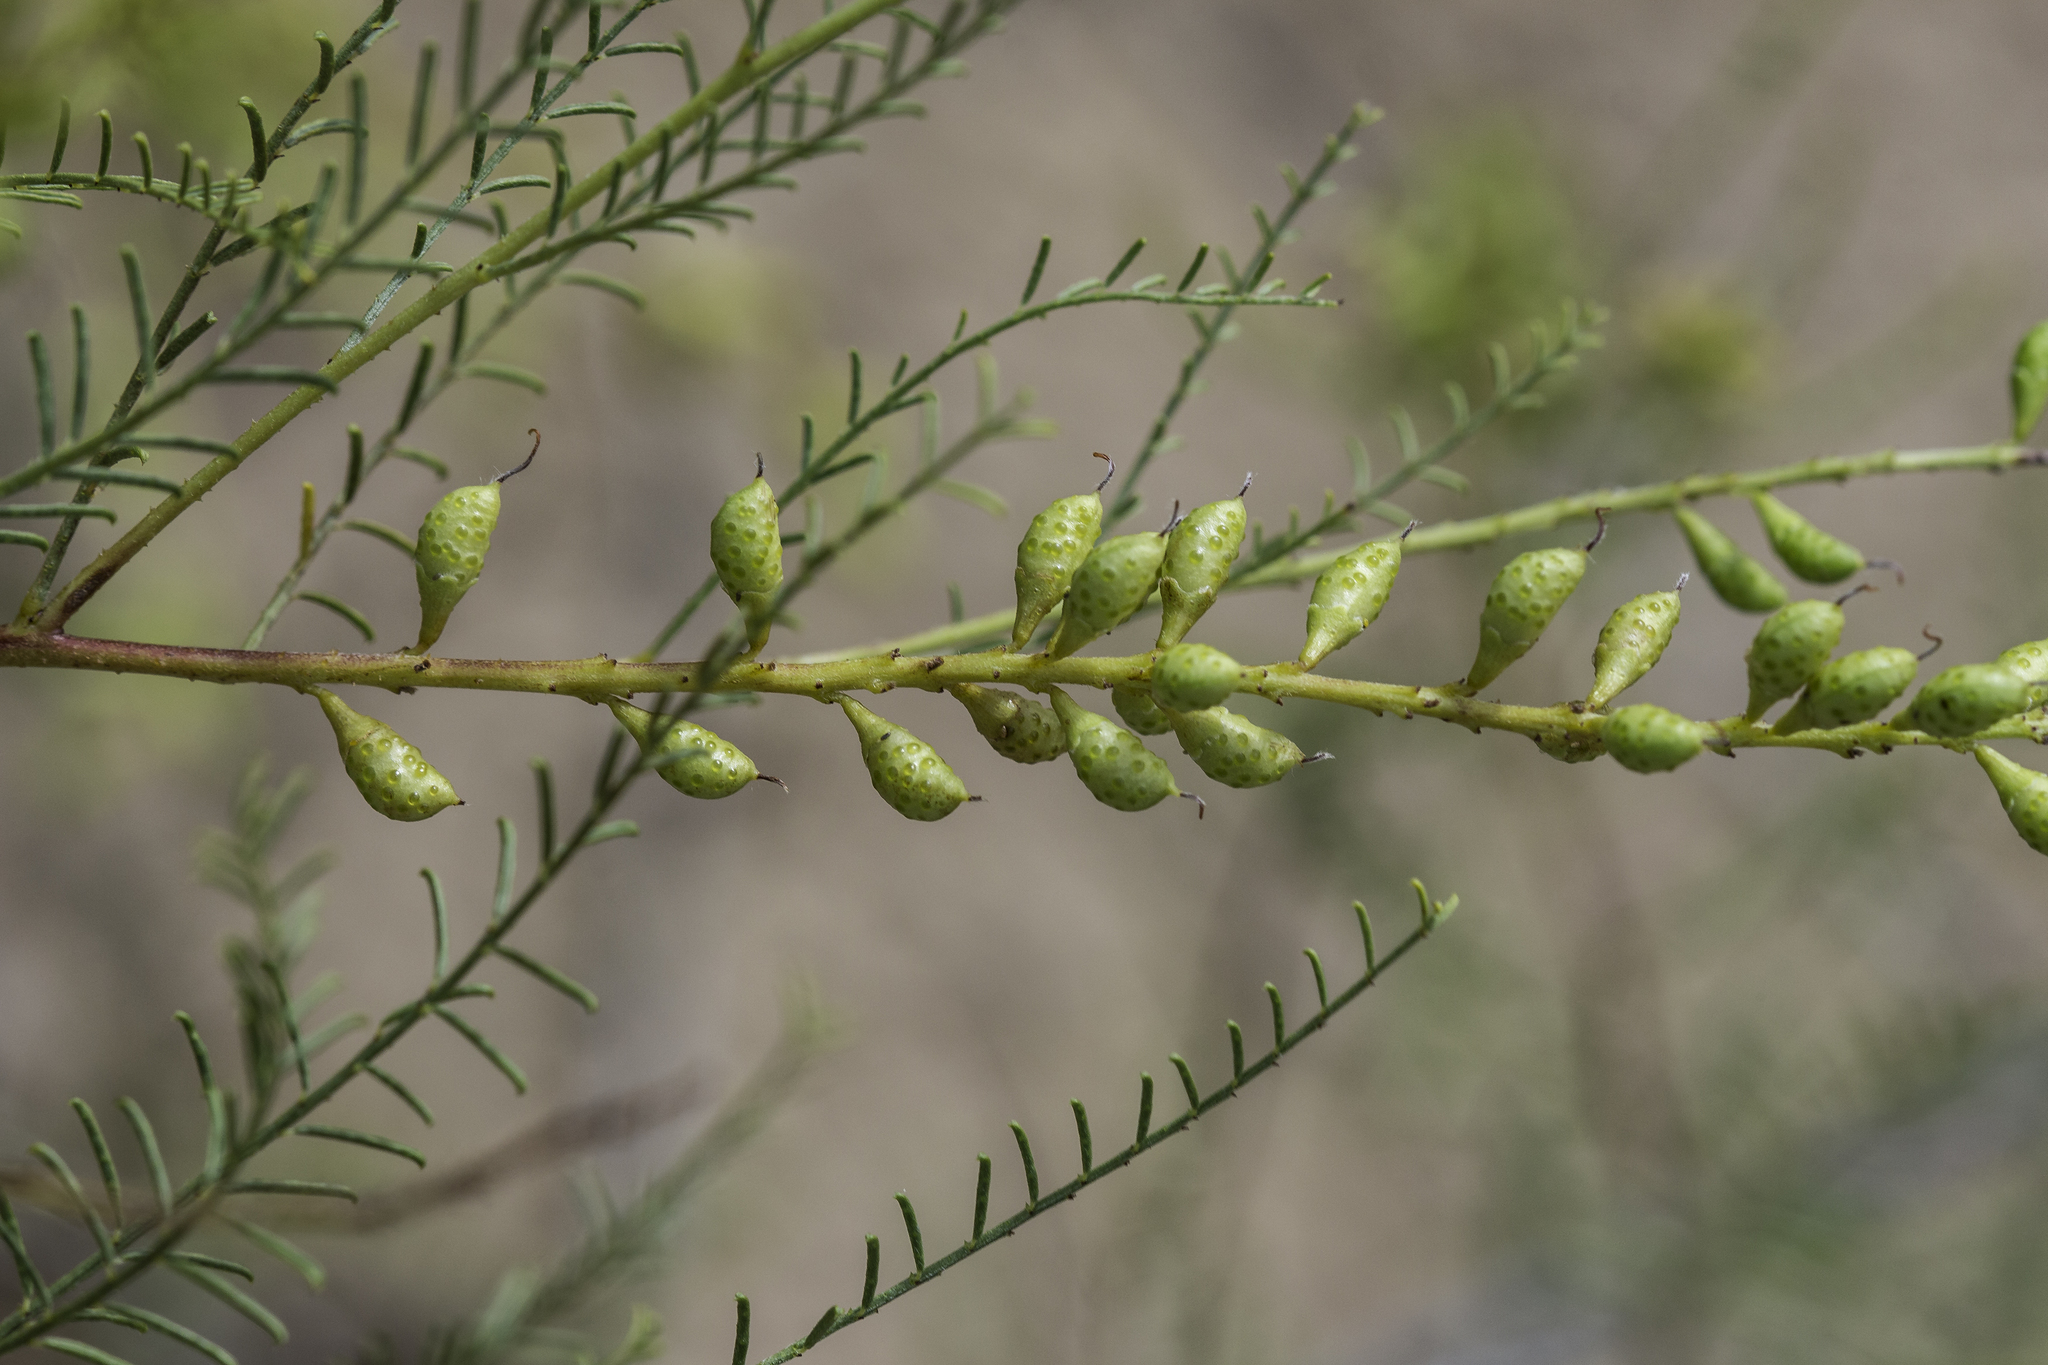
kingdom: Plantae
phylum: Tracheophyta
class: Magnoliopsida
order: Fabales
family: Fabaceae
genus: Parryella
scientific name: Parryella filifolia
